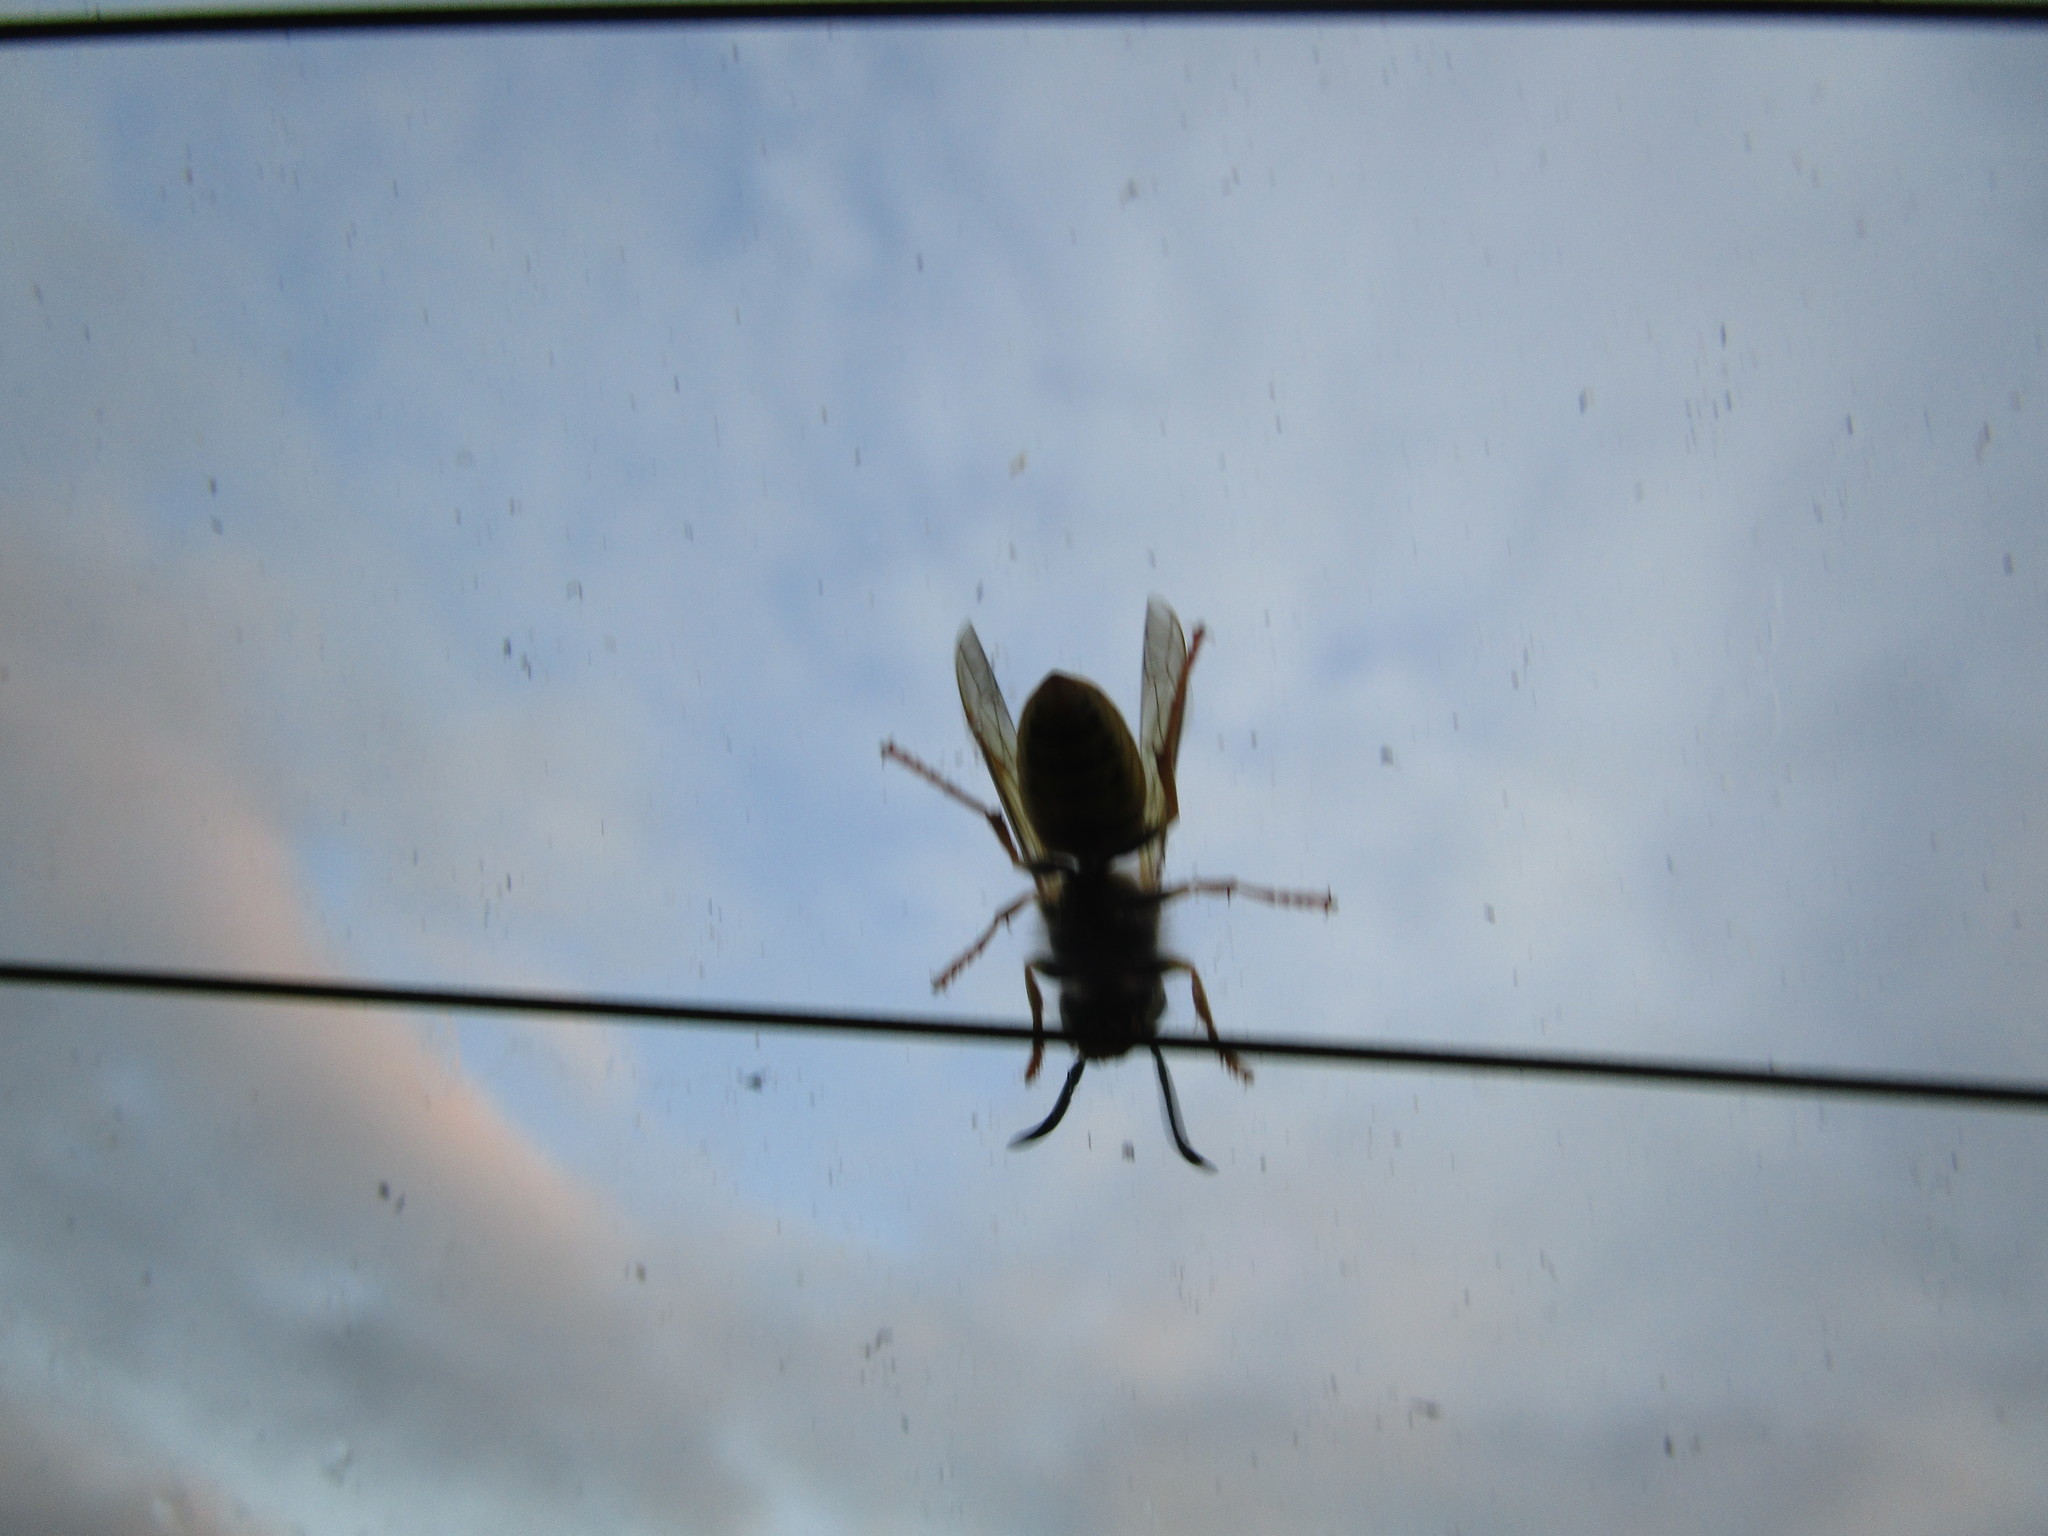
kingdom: Animalia
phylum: Arthropoda
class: Insecta
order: Hymenoptera
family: Vespidae
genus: Vespula
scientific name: Vespula
